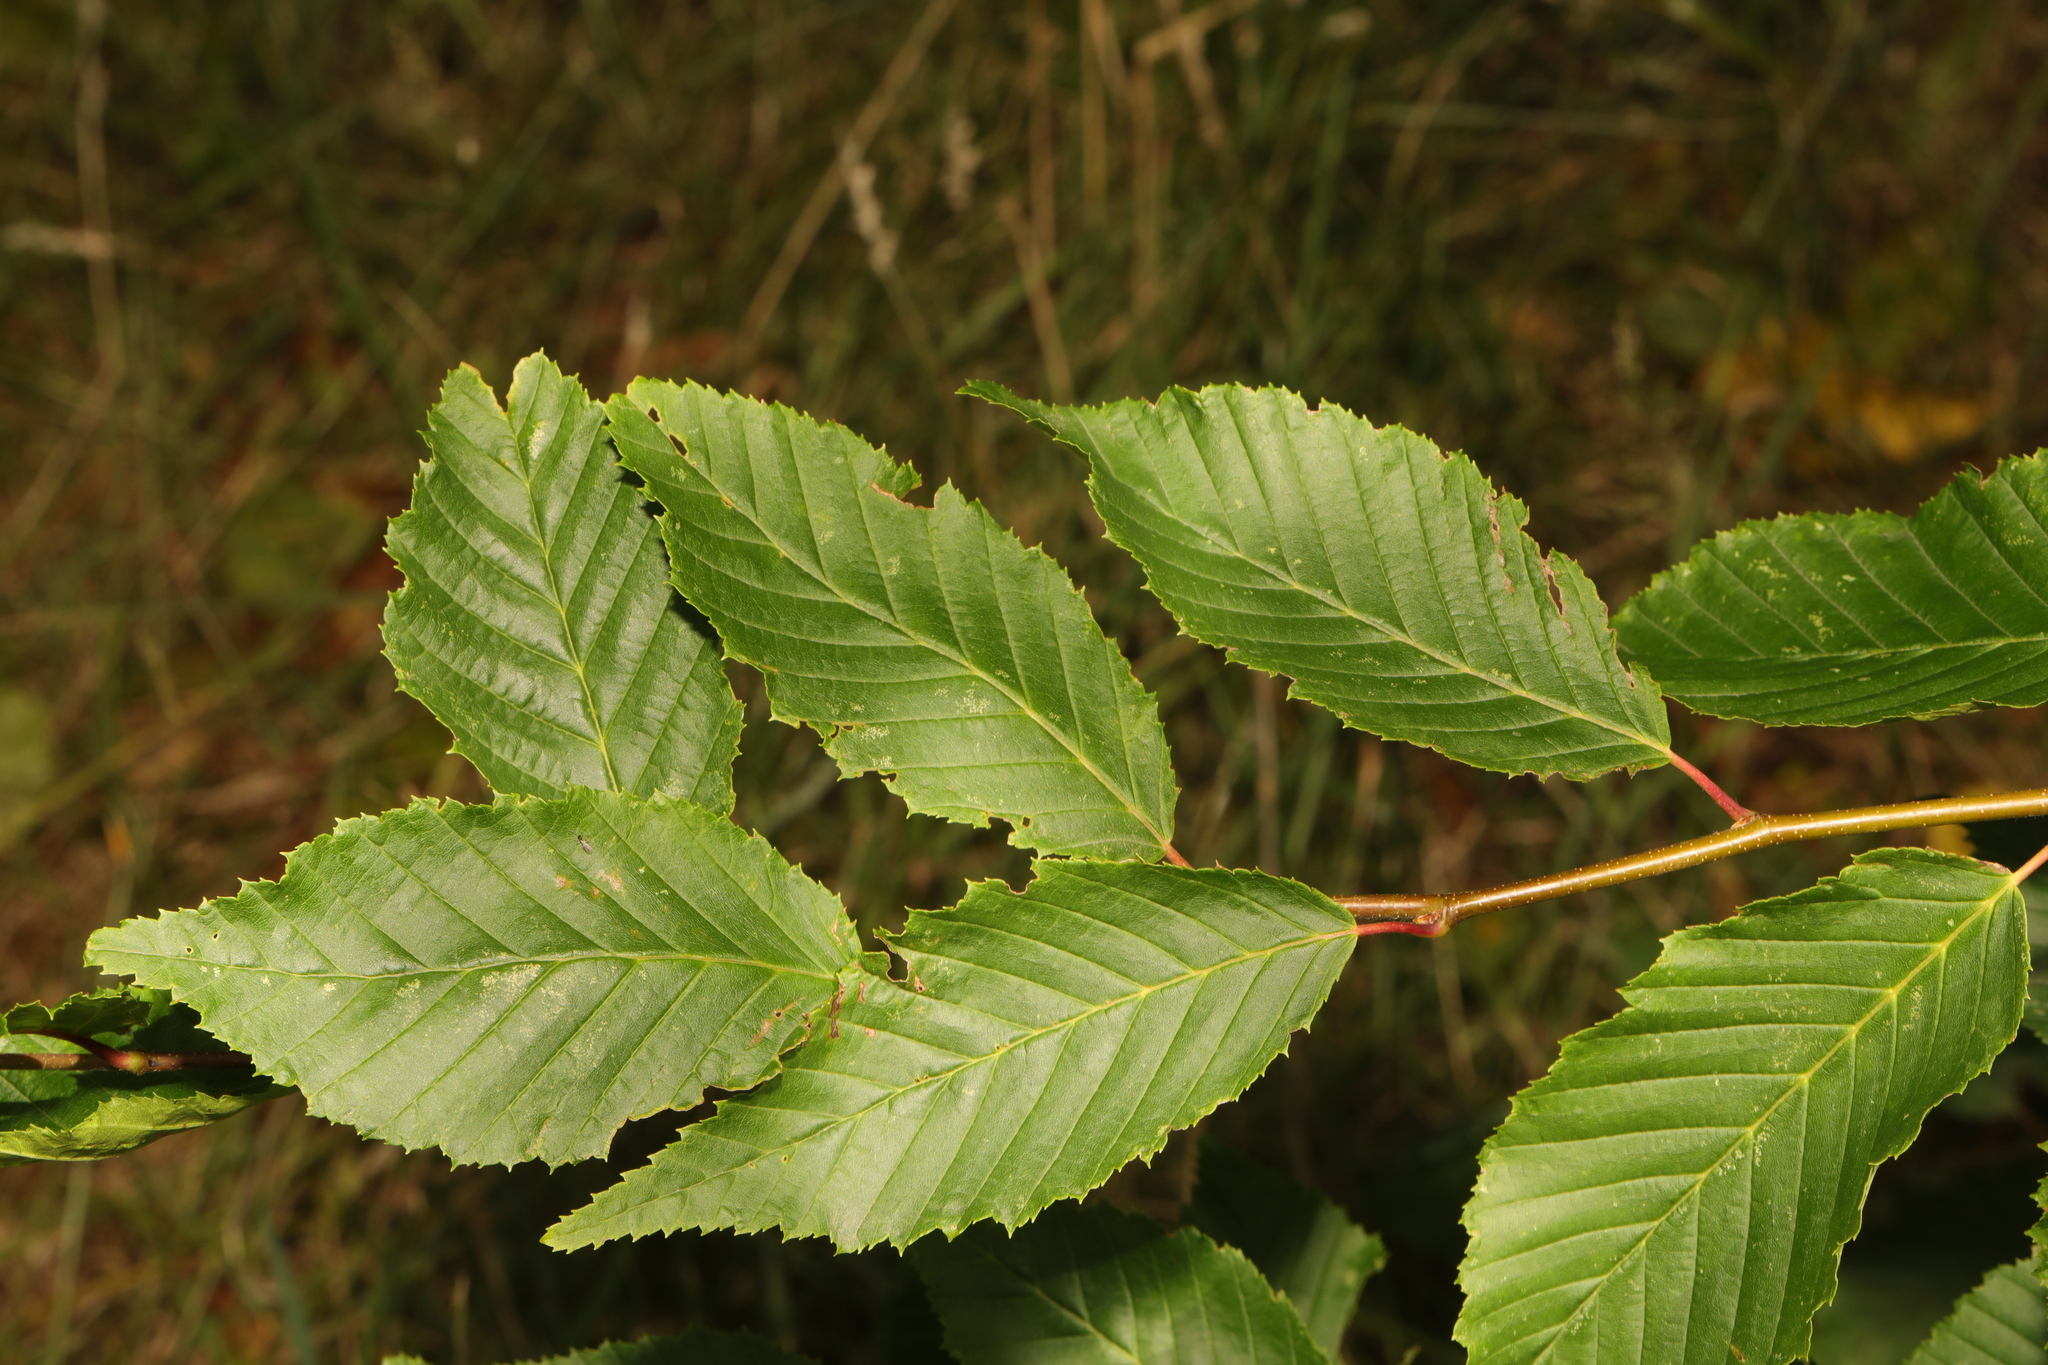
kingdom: Plantae
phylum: Tracheophyta
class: Magnoliopsida
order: Fagales
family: Betulaceae
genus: Carpinus
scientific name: Carpinus betulus
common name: Hornbeam
